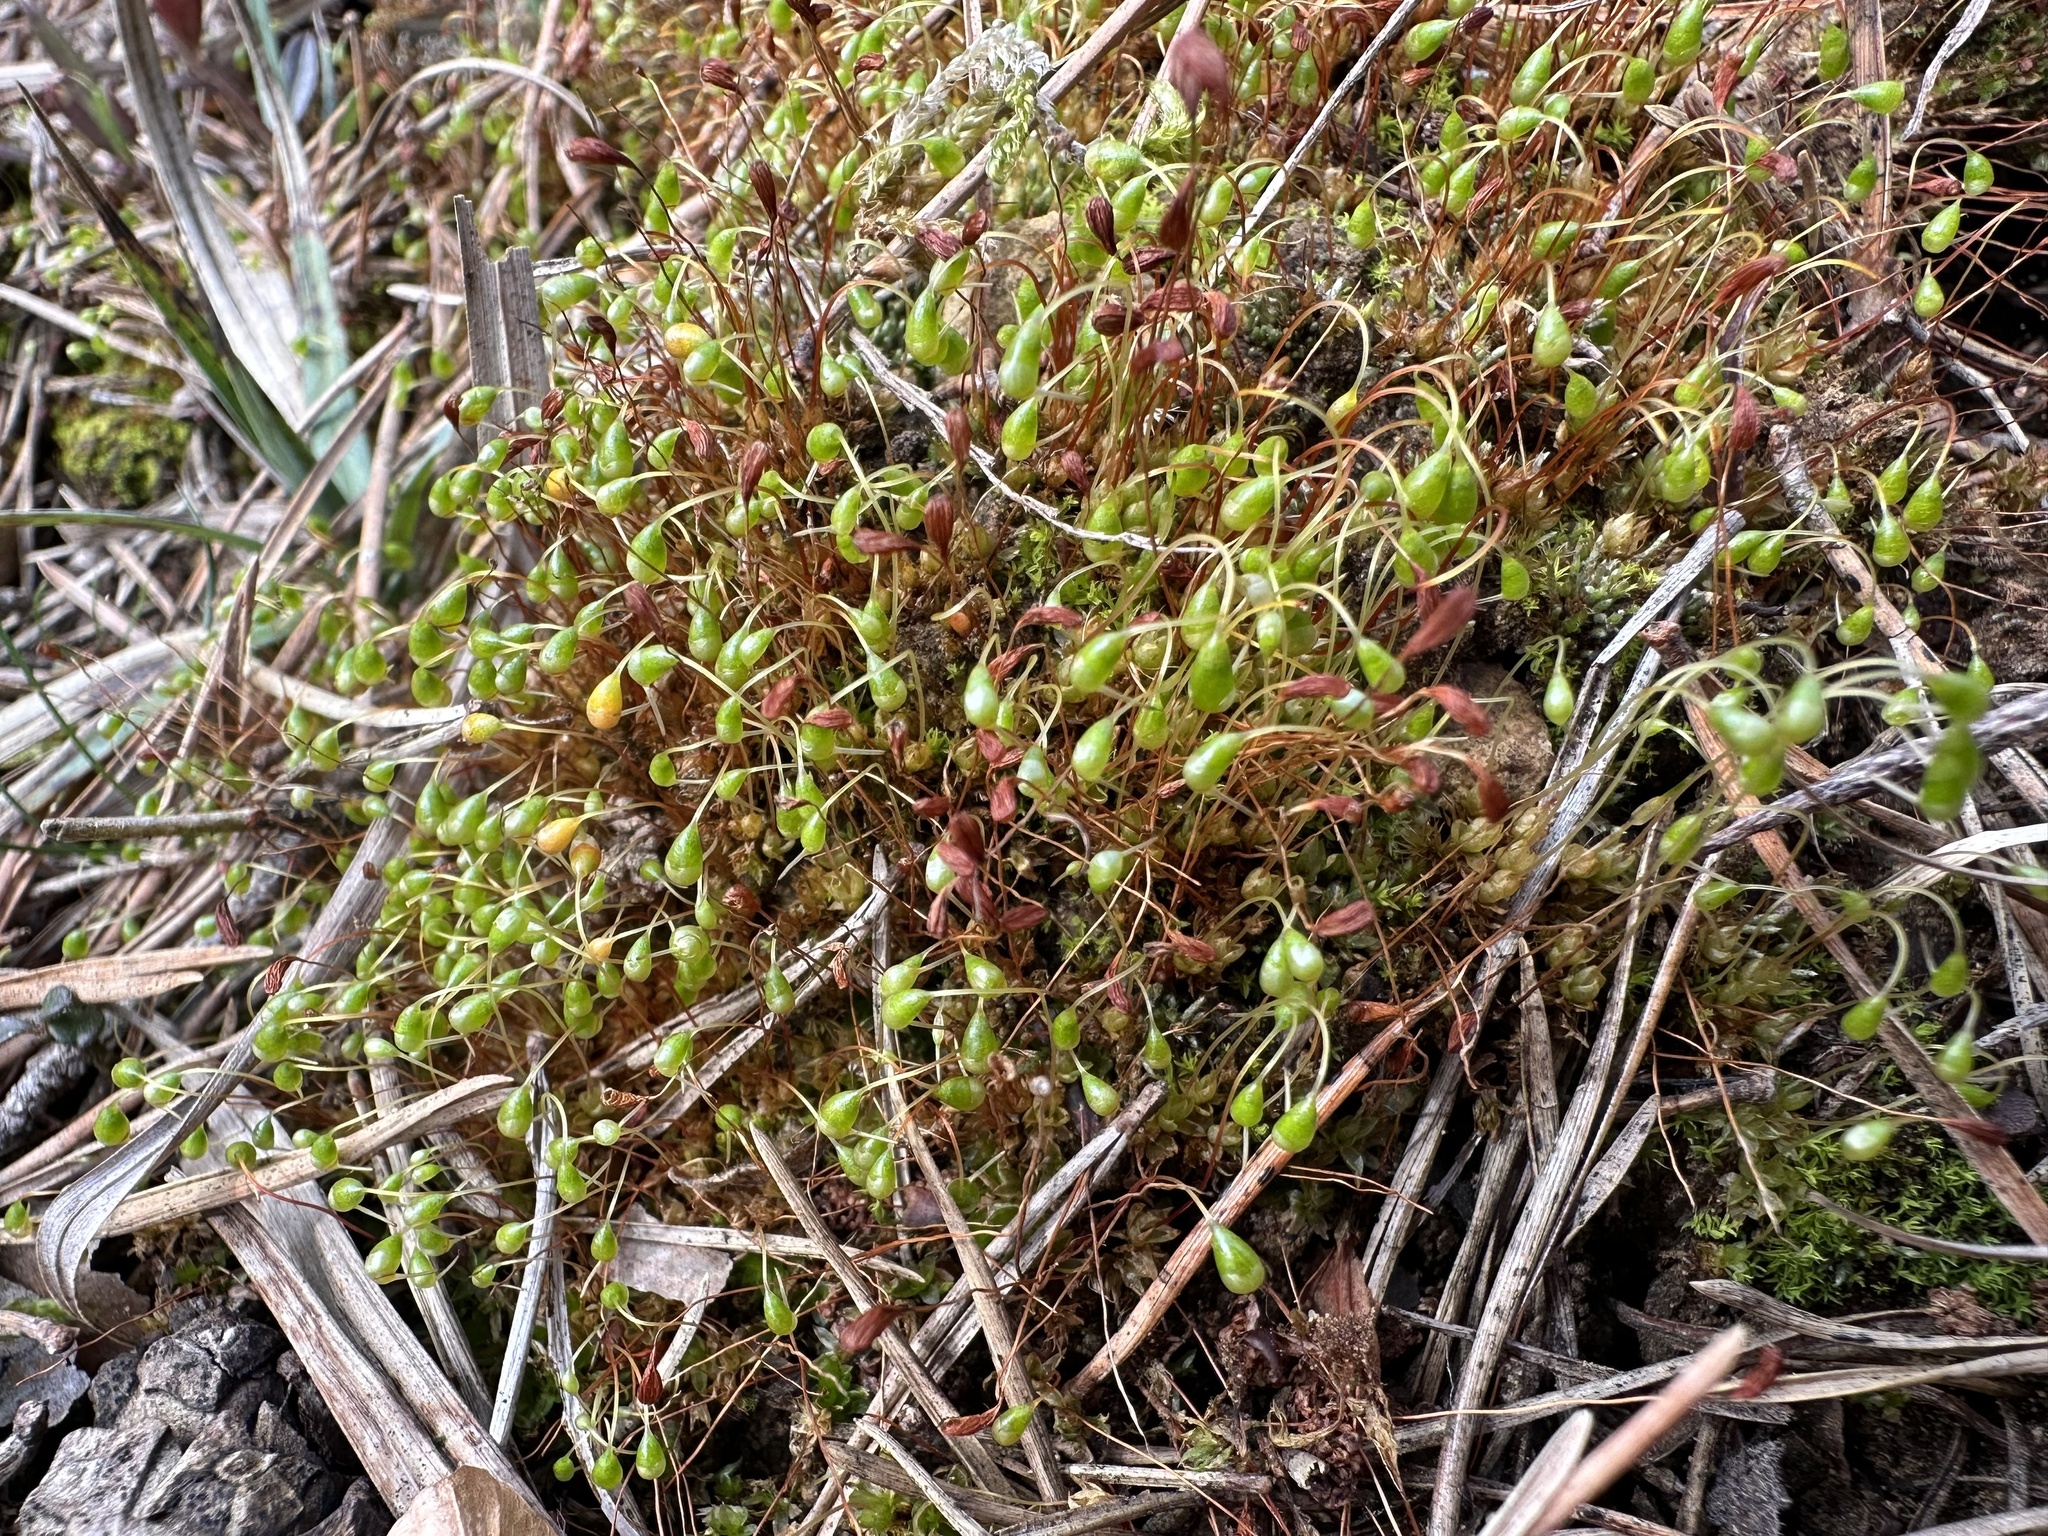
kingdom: Plantae
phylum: Bryophyta
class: Bryopsida
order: Funariales
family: Funariaceae
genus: Funaria
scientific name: Funaria hygrometrica
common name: Common cord moss
